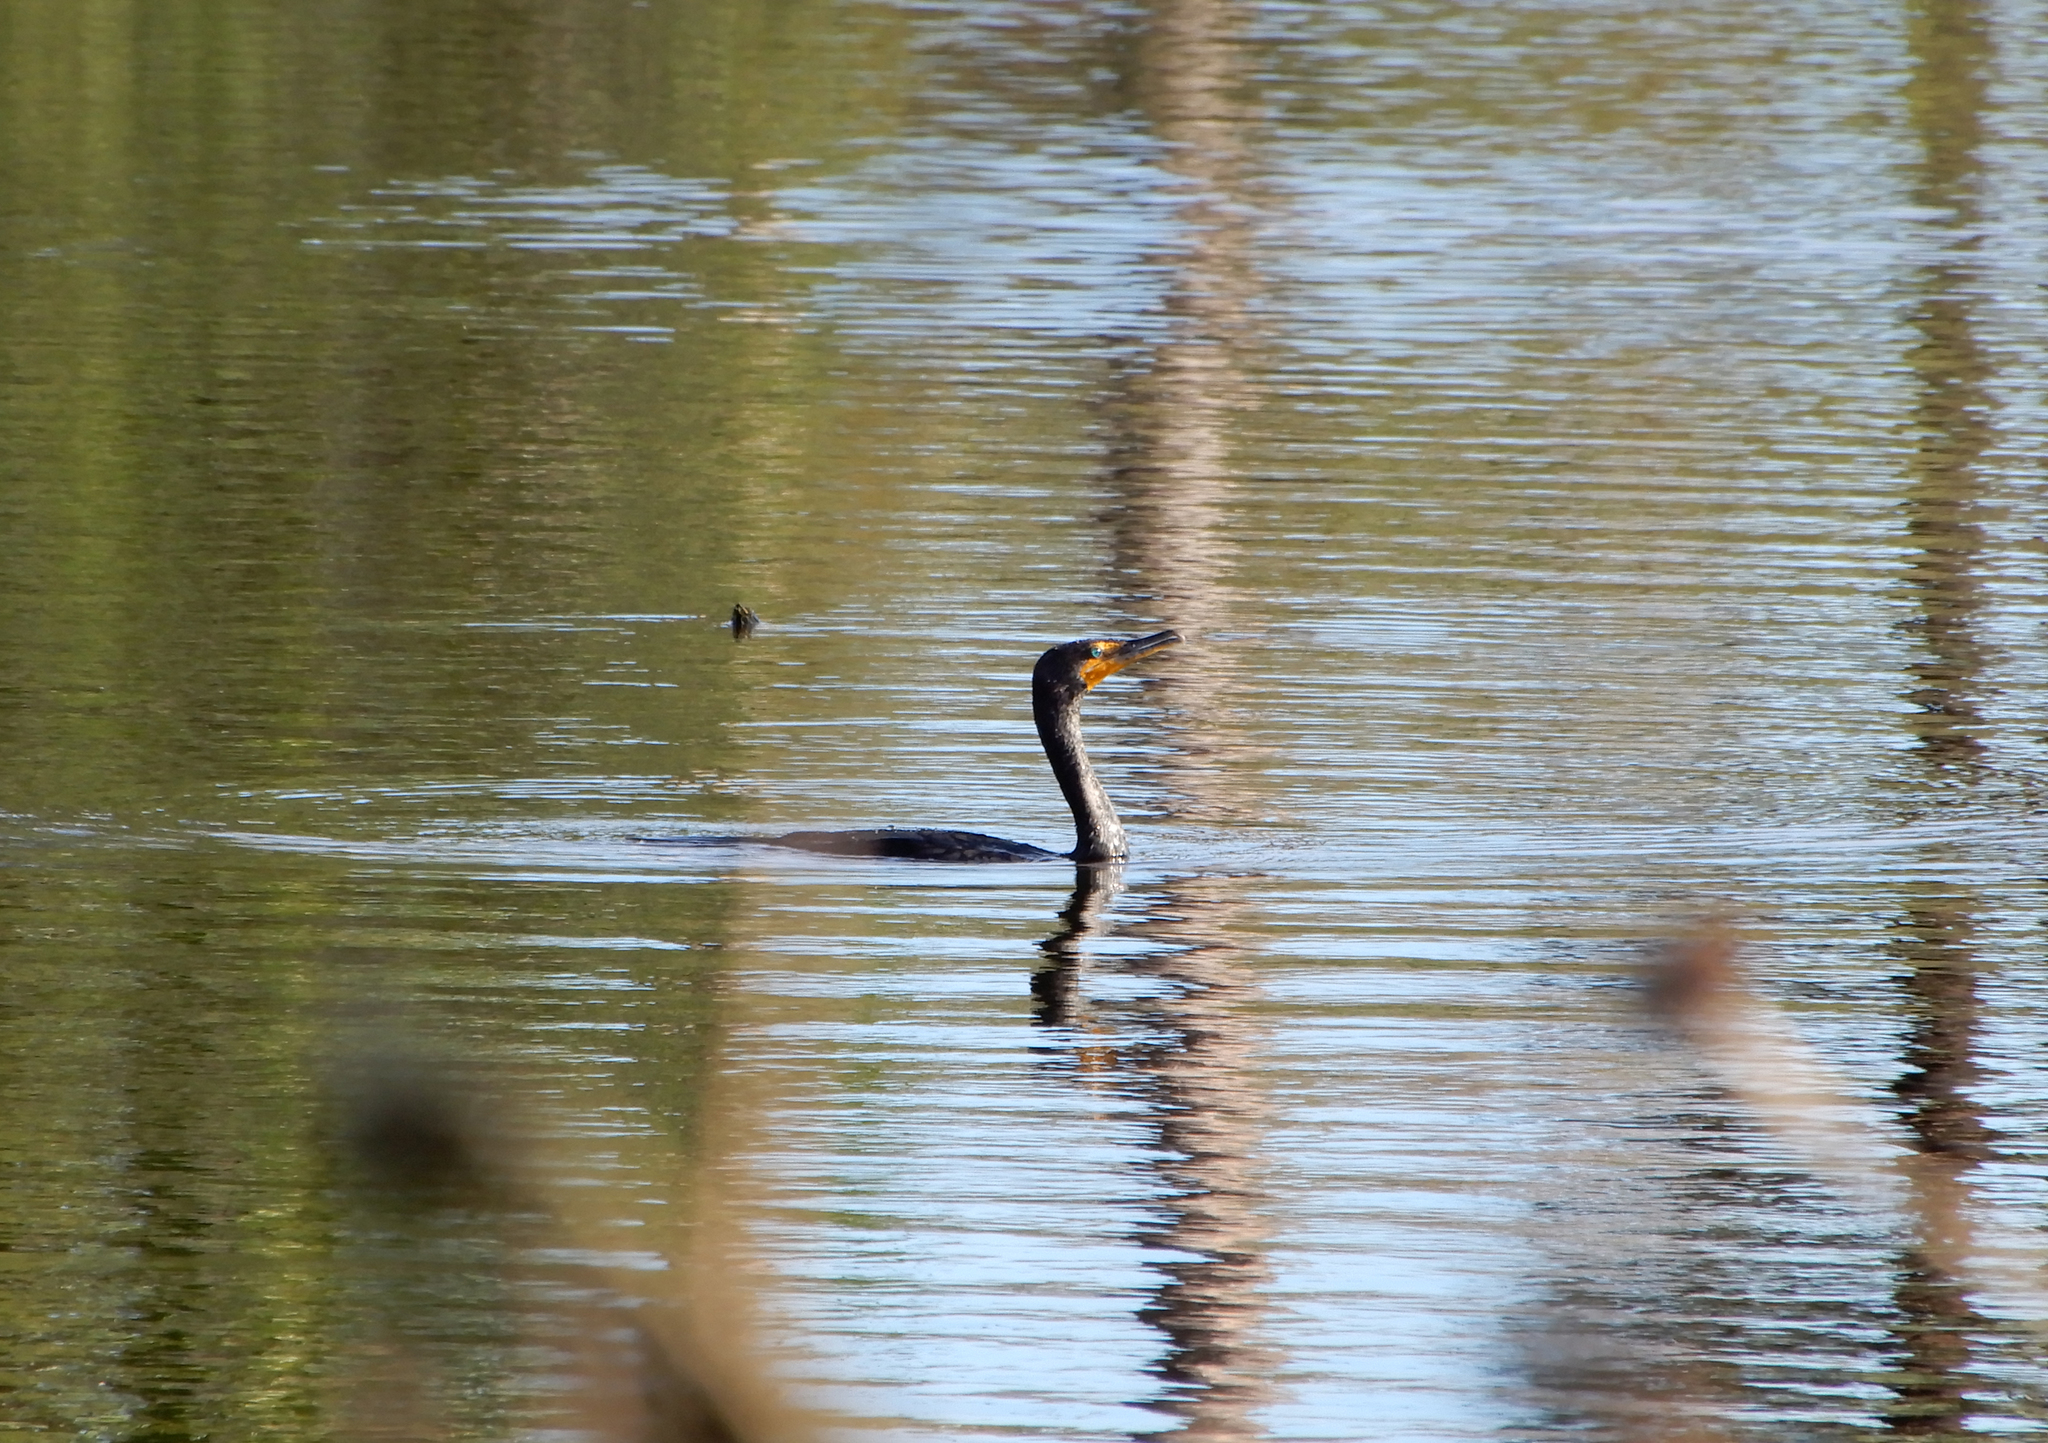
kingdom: Animalia
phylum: Chordata
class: Aves
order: Suliformes
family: Phalacrocoracidae
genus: Phalacrocorax
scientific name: Phalacrocorax auritus
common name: Double-crested cormorant
